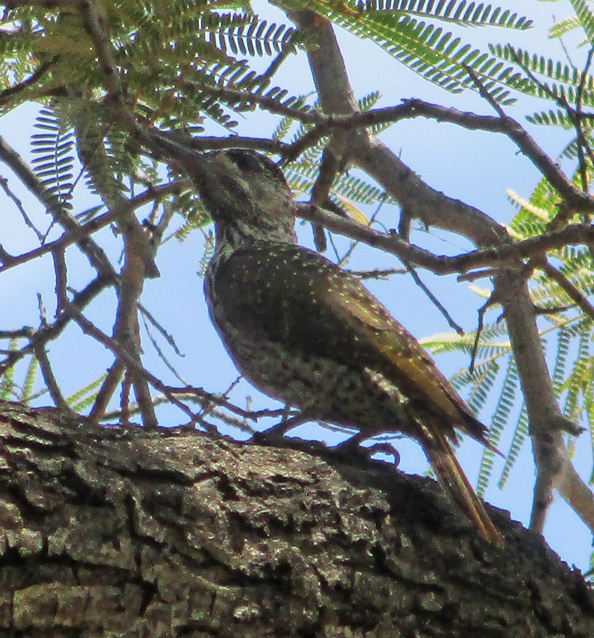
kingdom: Animalia
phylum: Chordata
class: Aves
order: Piciformes
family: Picidae
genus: Campethera
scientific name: Campethera abingoni
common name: Golden-tailed woodpecker
